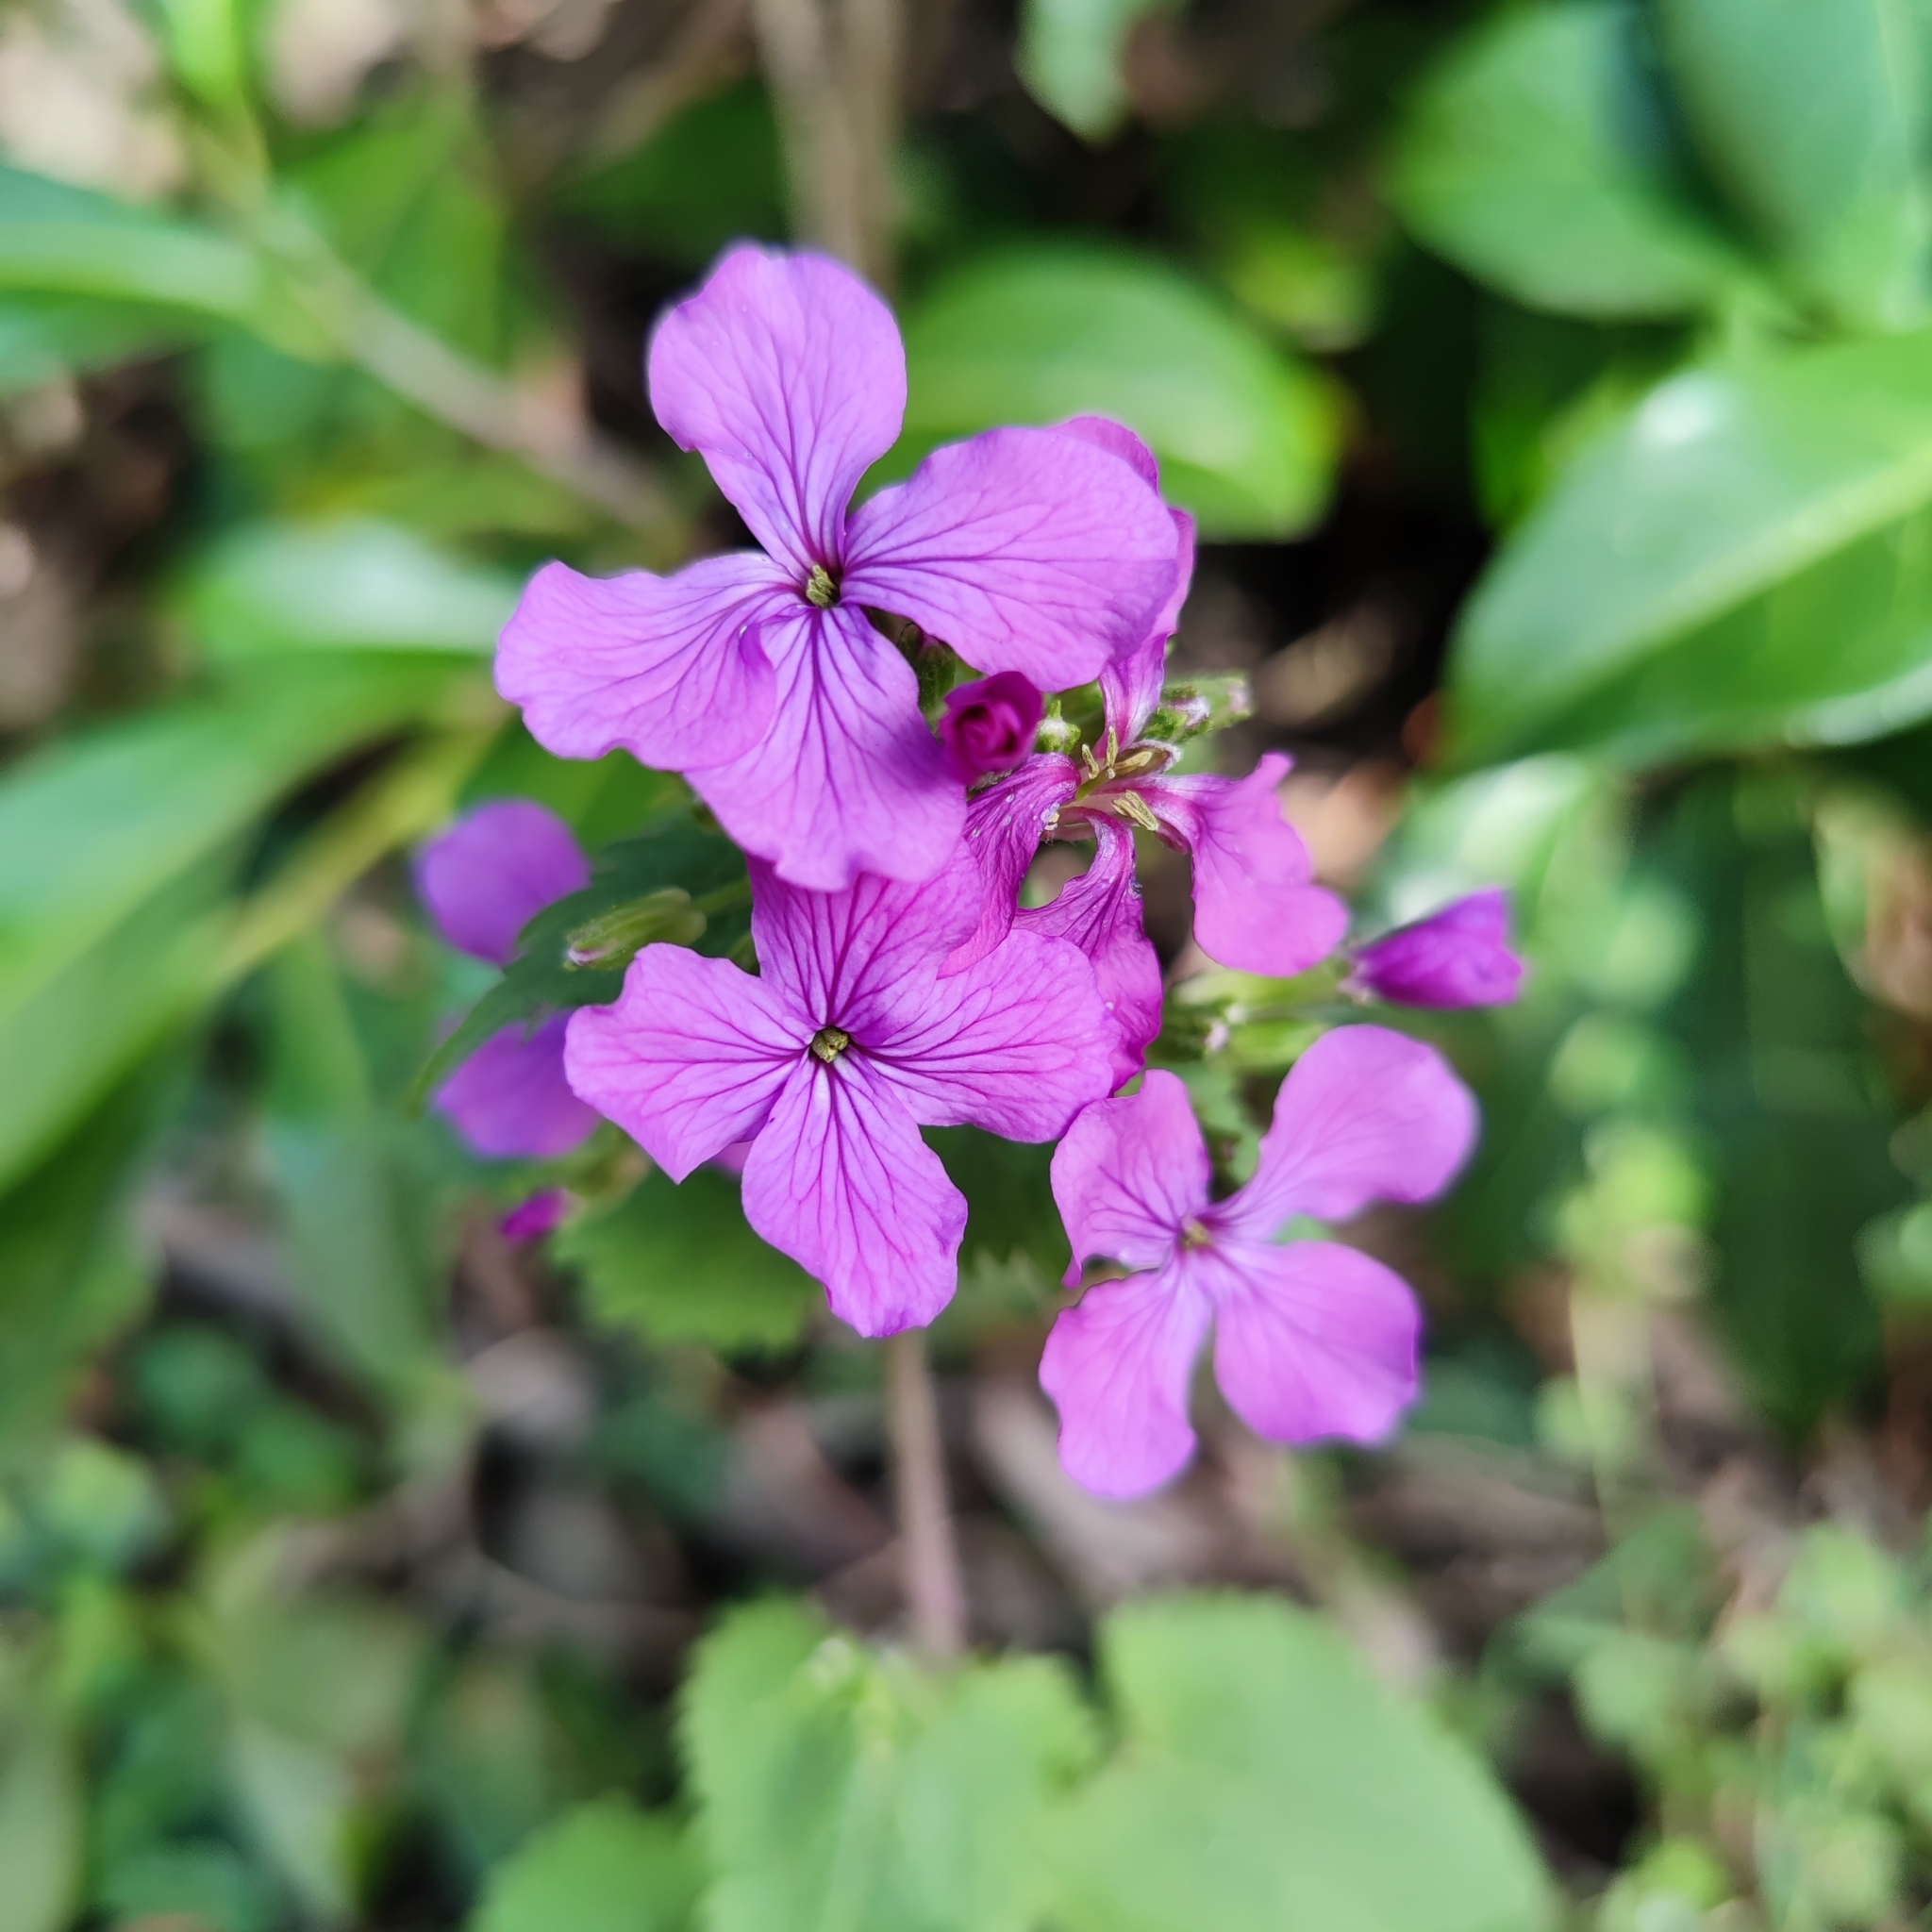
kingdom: Plantae
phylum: Tracheophyta
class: Magnoliopsida
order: Brassicales
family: Brassicaceae
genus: Lunaria
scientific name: Lunaria annua
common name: Honesty
